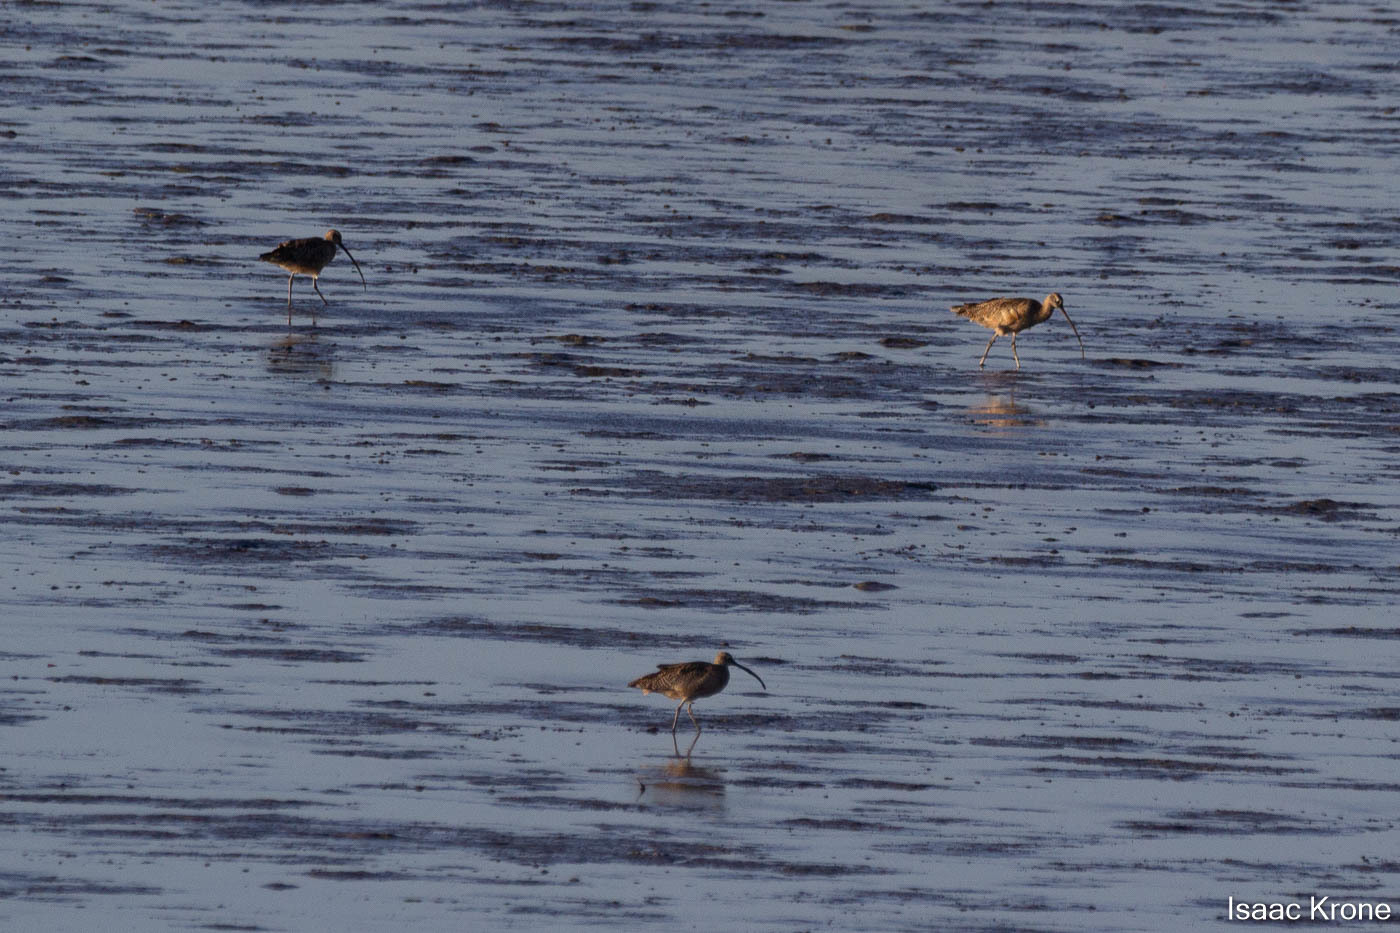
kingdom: Animalia
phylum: Chordata
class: Aves
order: Charadriiformes
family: Scolopacidae
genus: Numenius
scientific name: Numenius americanus
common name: Long-billed curlew
